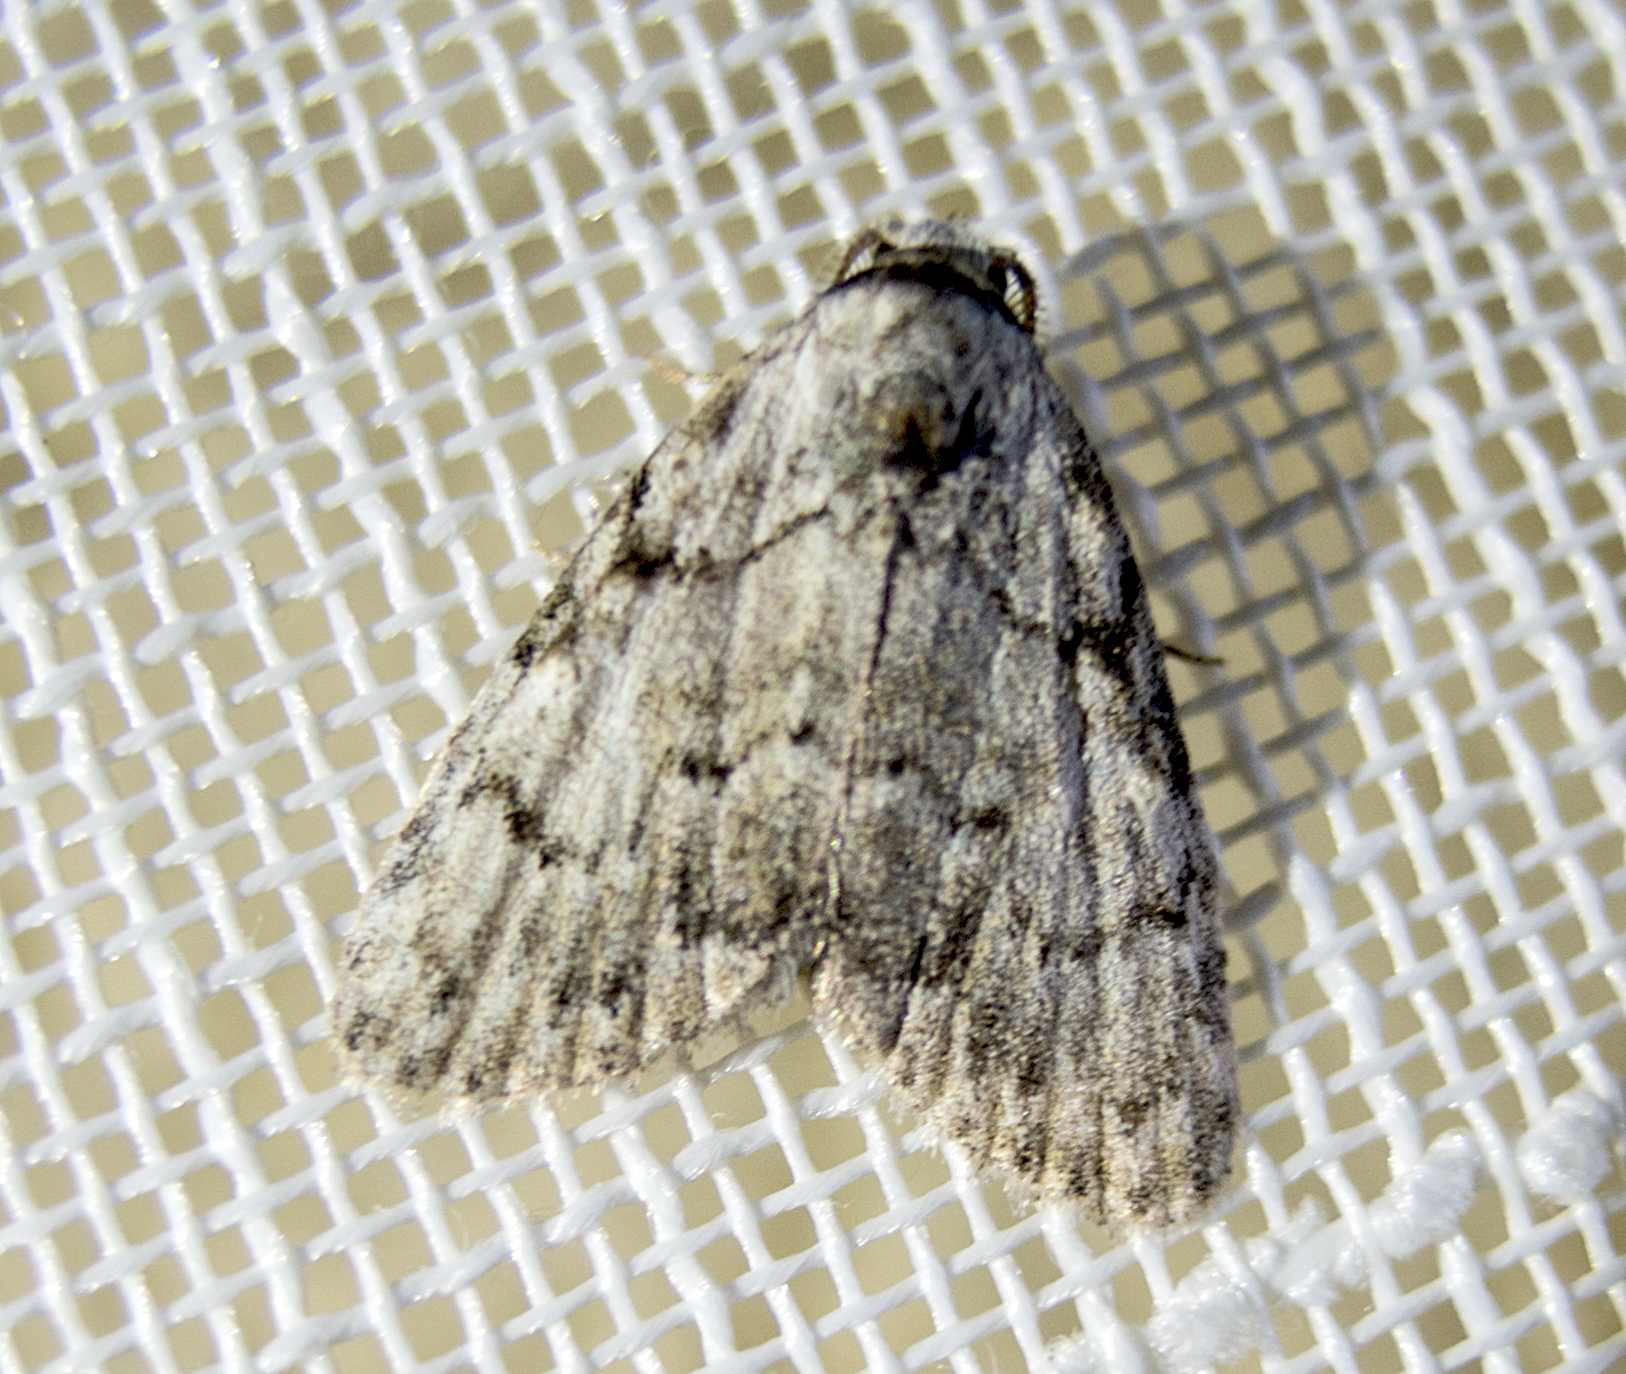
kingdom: Animalia
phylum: Arthropoda
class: Insecta
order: Lepidoptera
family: Nolidae
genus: Meganola
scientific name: Meganola strigula
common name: Small black arches
